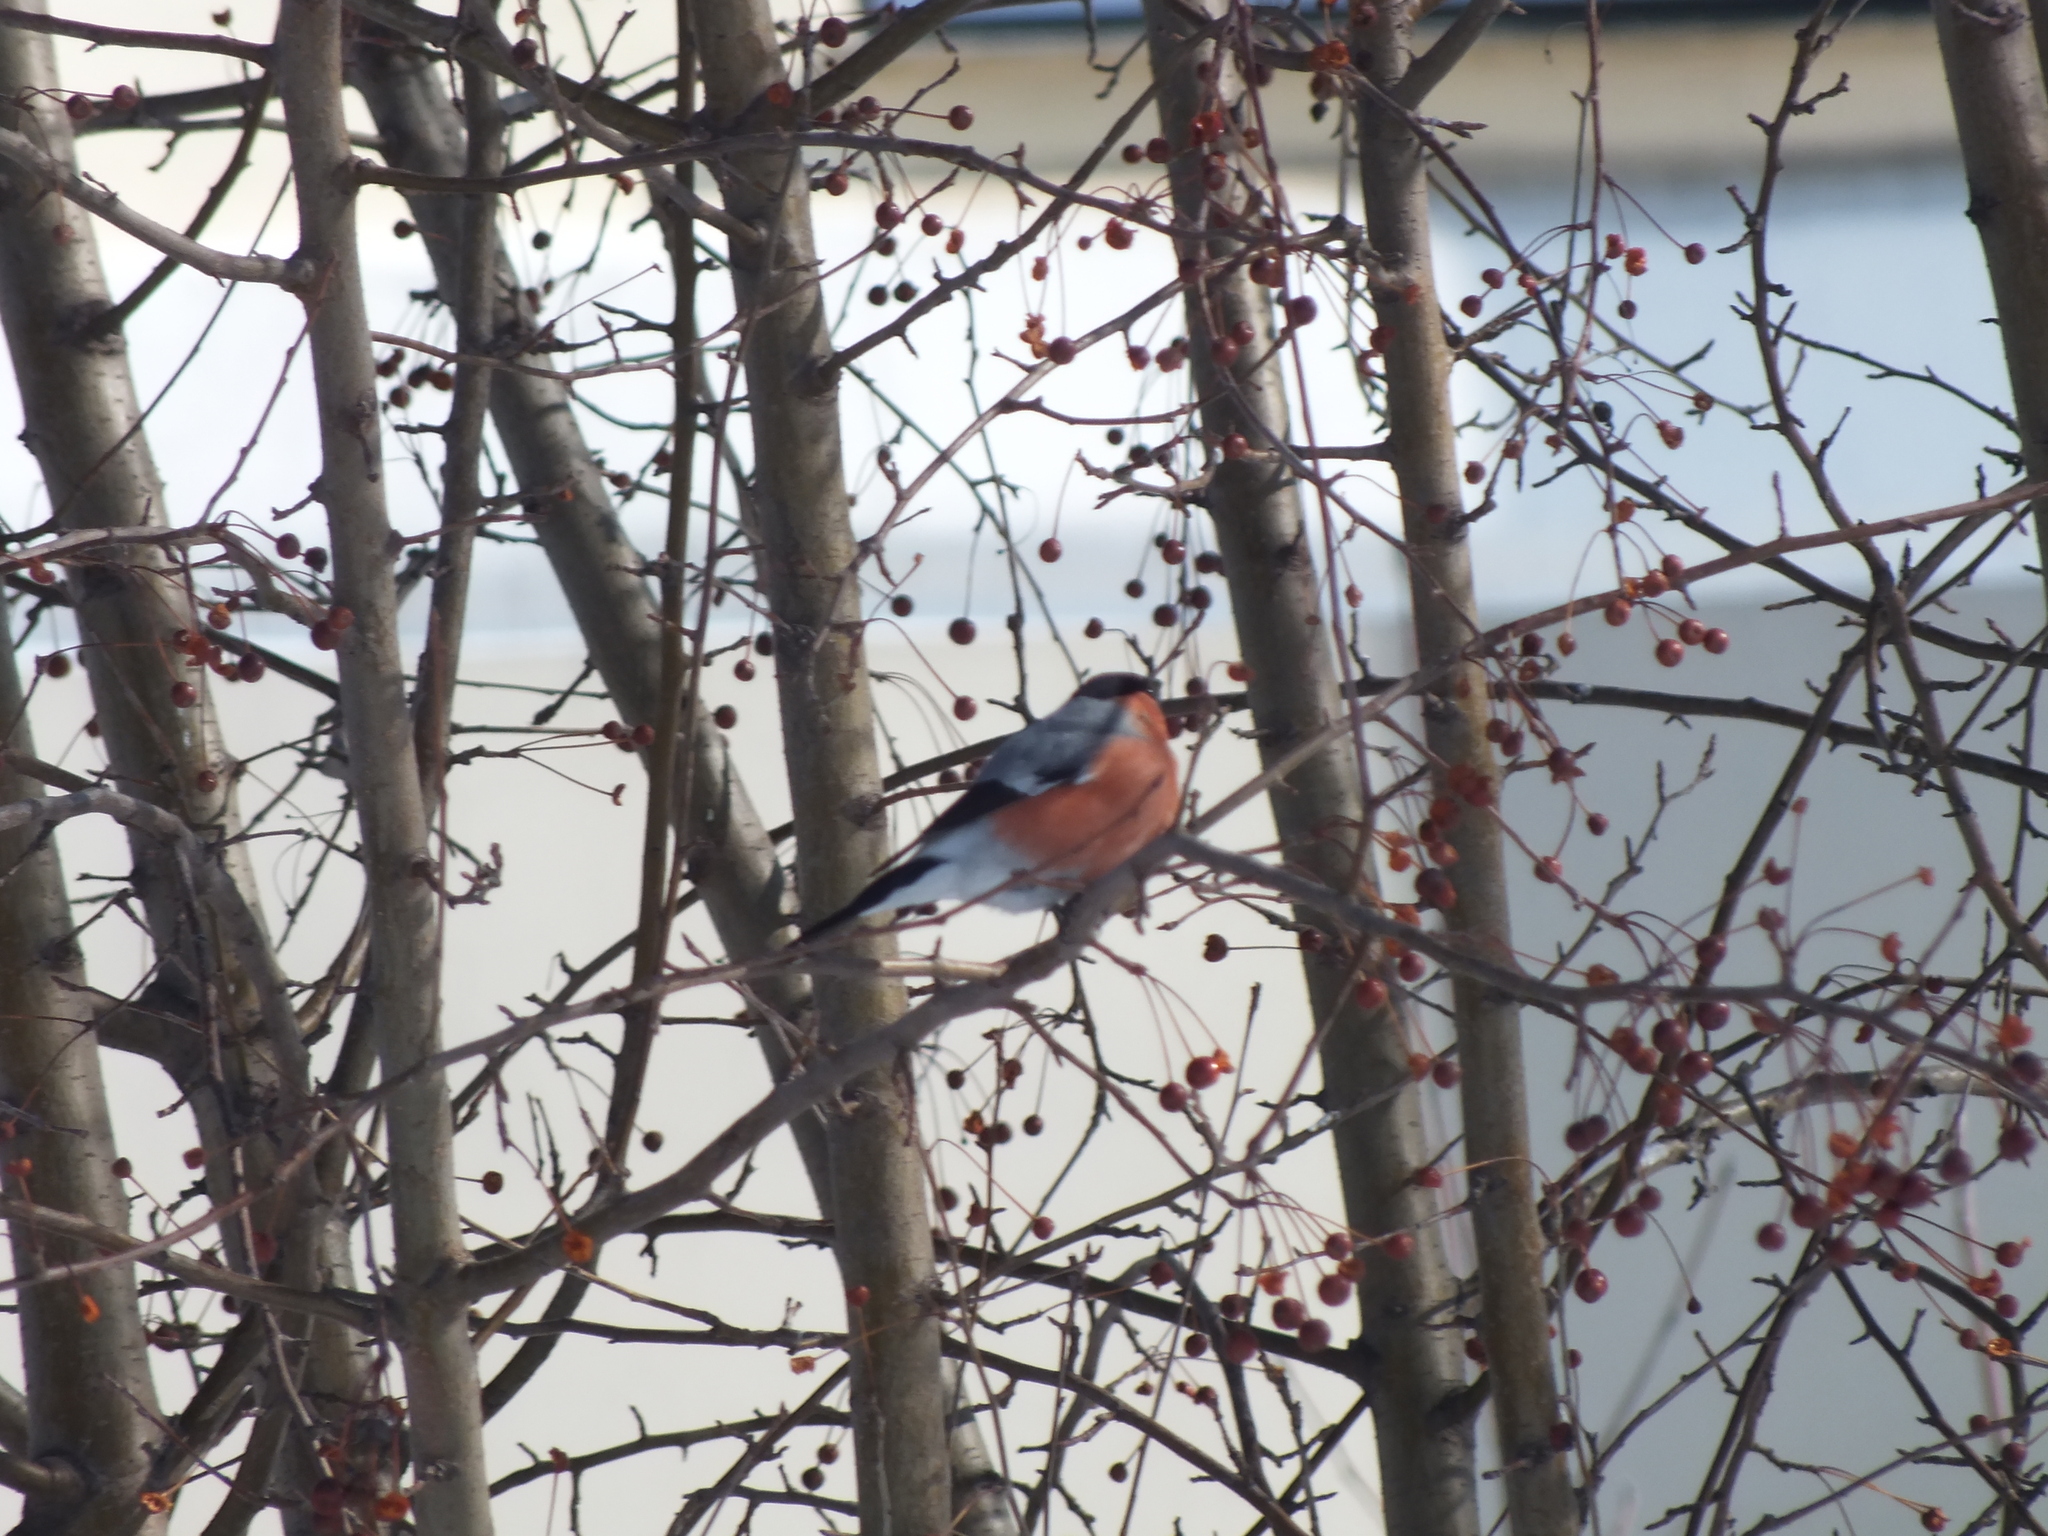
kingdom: Animalia
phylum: Chordata
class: Aves
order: Passeriformes
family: Fringillidae
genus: Pyrrhula
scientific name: Pyrrhula pyrrhula
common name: Eurasian bullfinch
